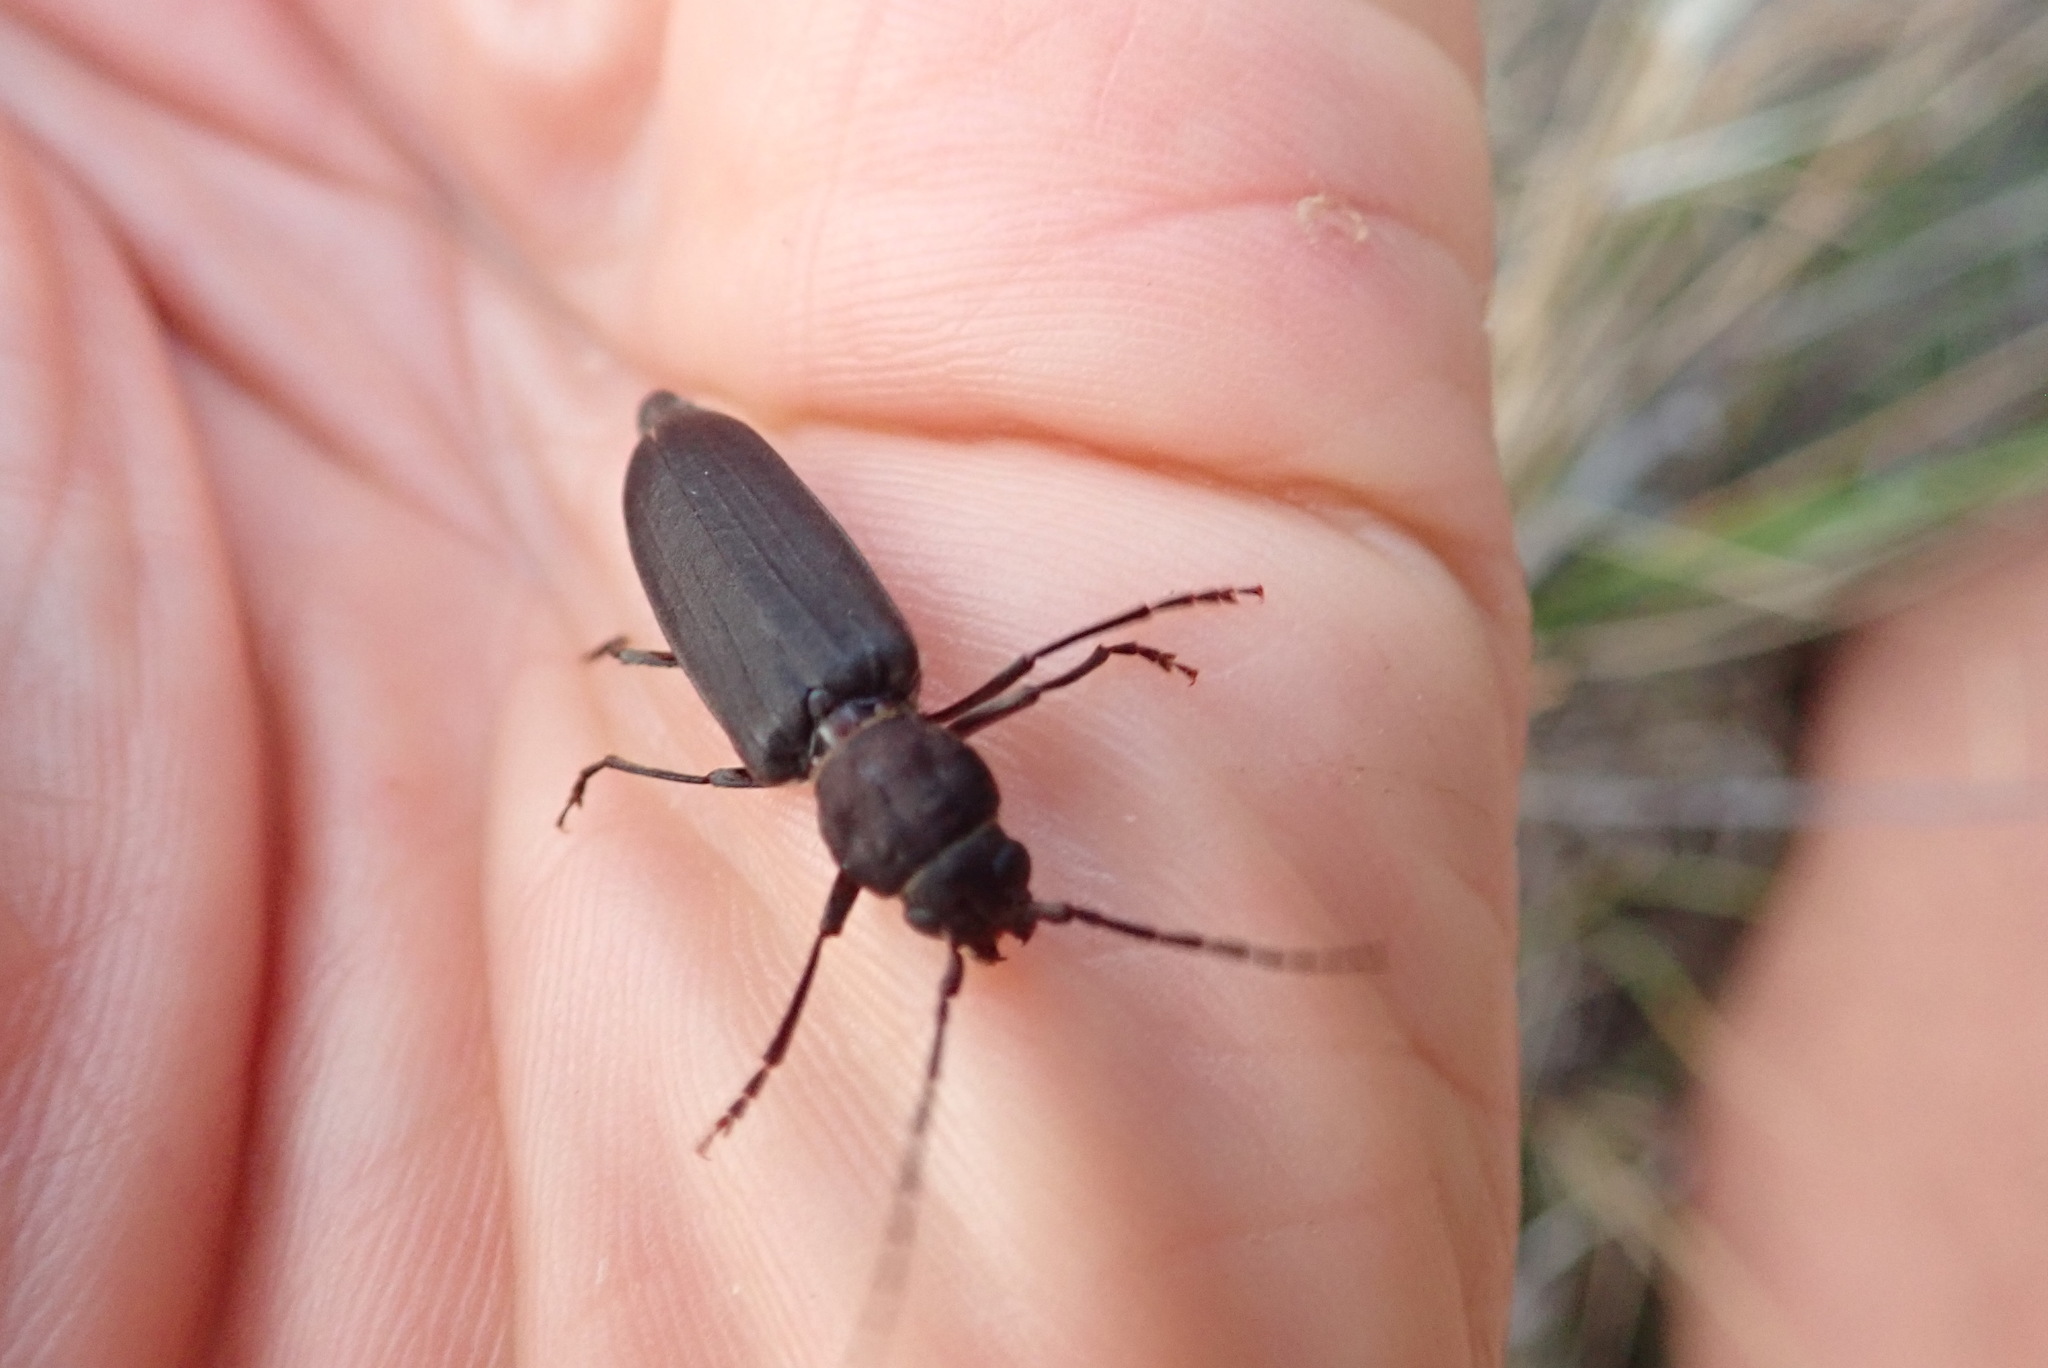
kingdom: Animalia
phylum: Arthropoda
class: Insecta
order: Coleoptera
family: Cerambycidae
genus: Arhopalus
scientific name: Arhopalus ferus
